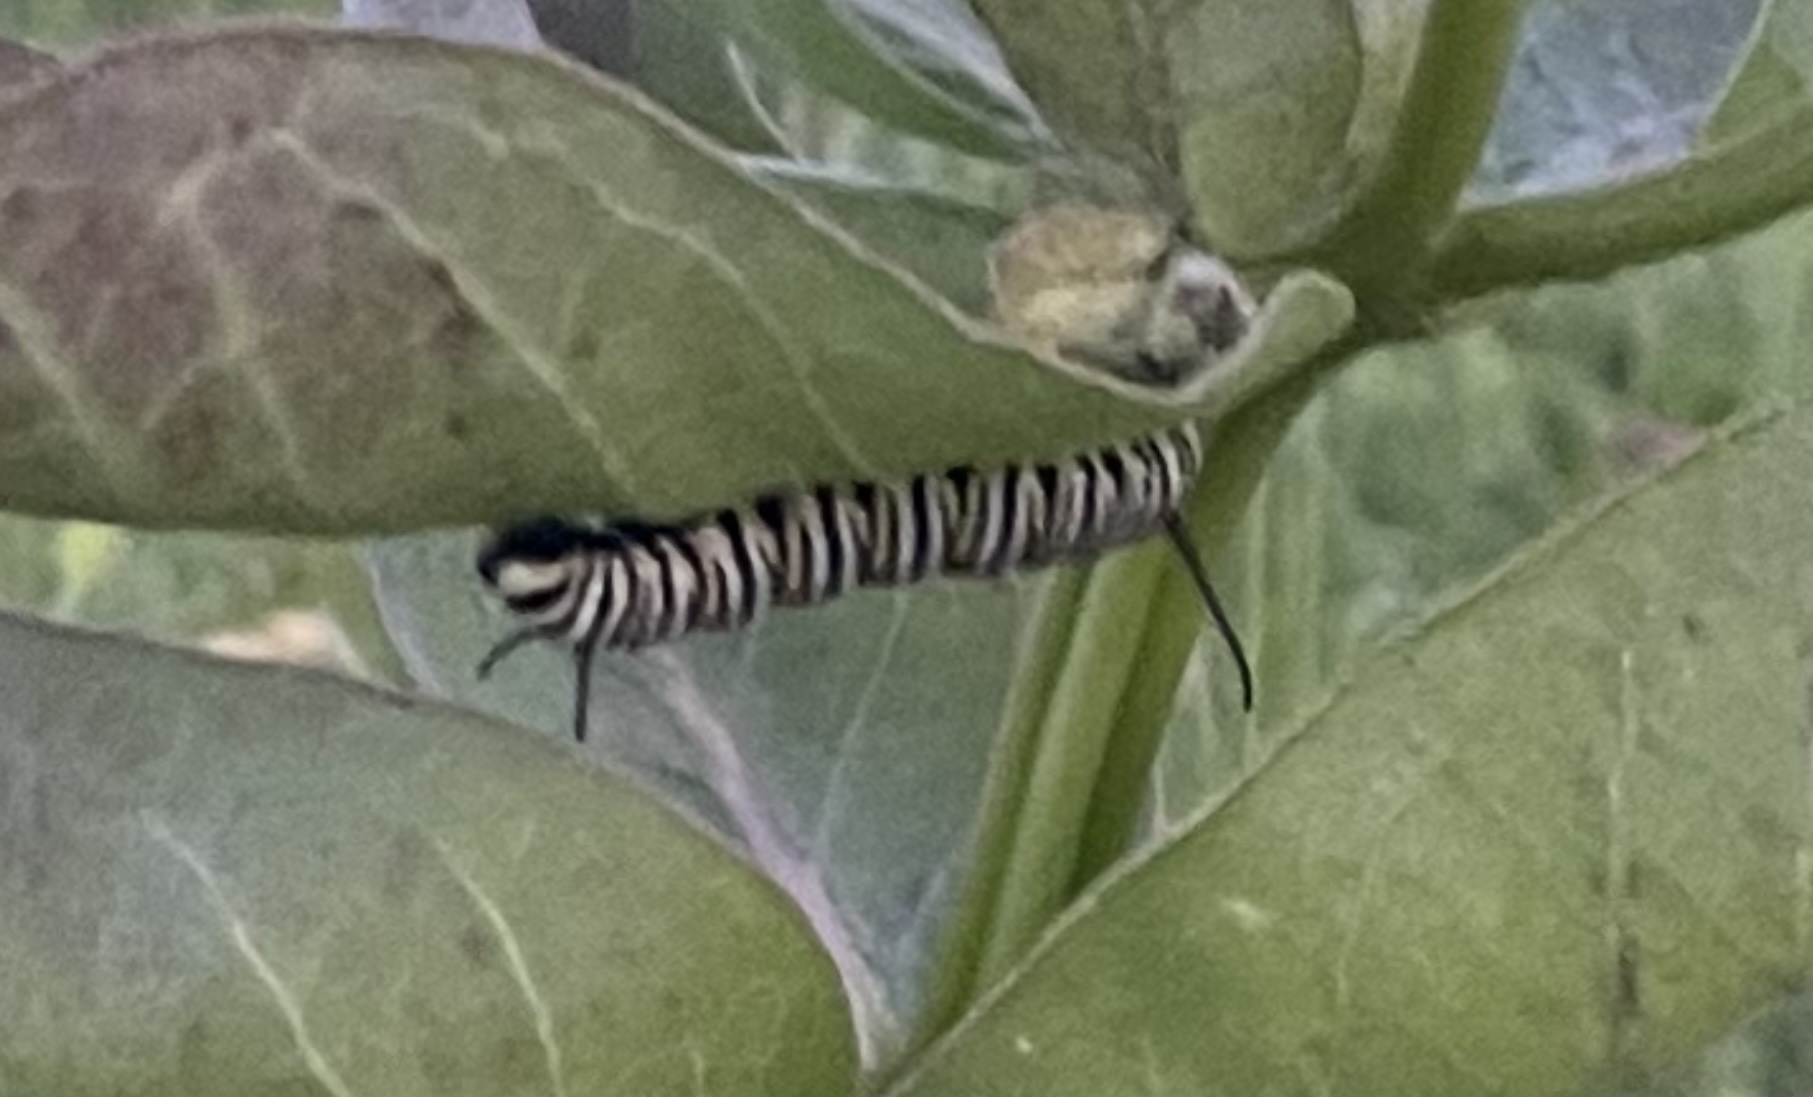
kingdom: Animalia
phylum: Arthropoda
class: Insecta
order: Lepidoptera
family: Nymphalidae
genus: Danaus
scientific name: Danaus plexippus
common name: Monarch
